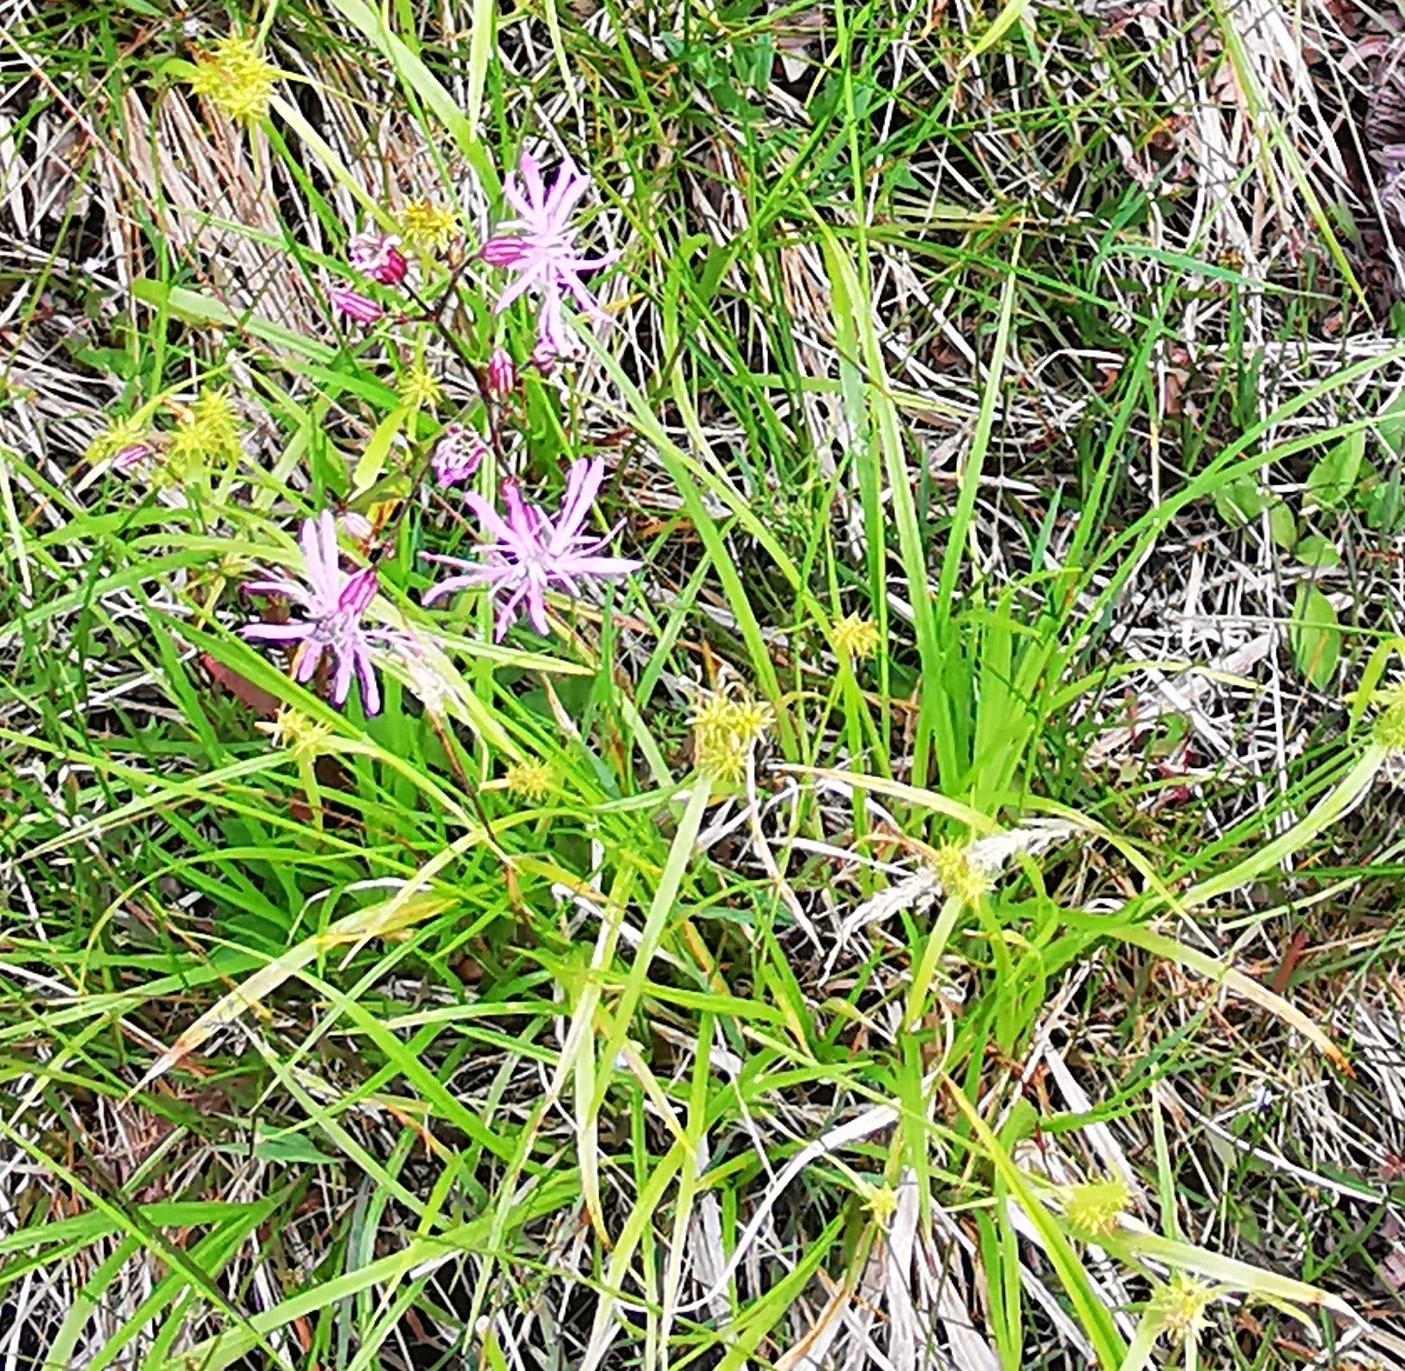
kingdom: Plantae
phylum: Tracheophyta
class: Magnoliopsida
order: Caryophyllales
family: Caryophyllaceae
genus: Silene
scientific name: Silene flos-cuculi
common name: Ragged-robin
